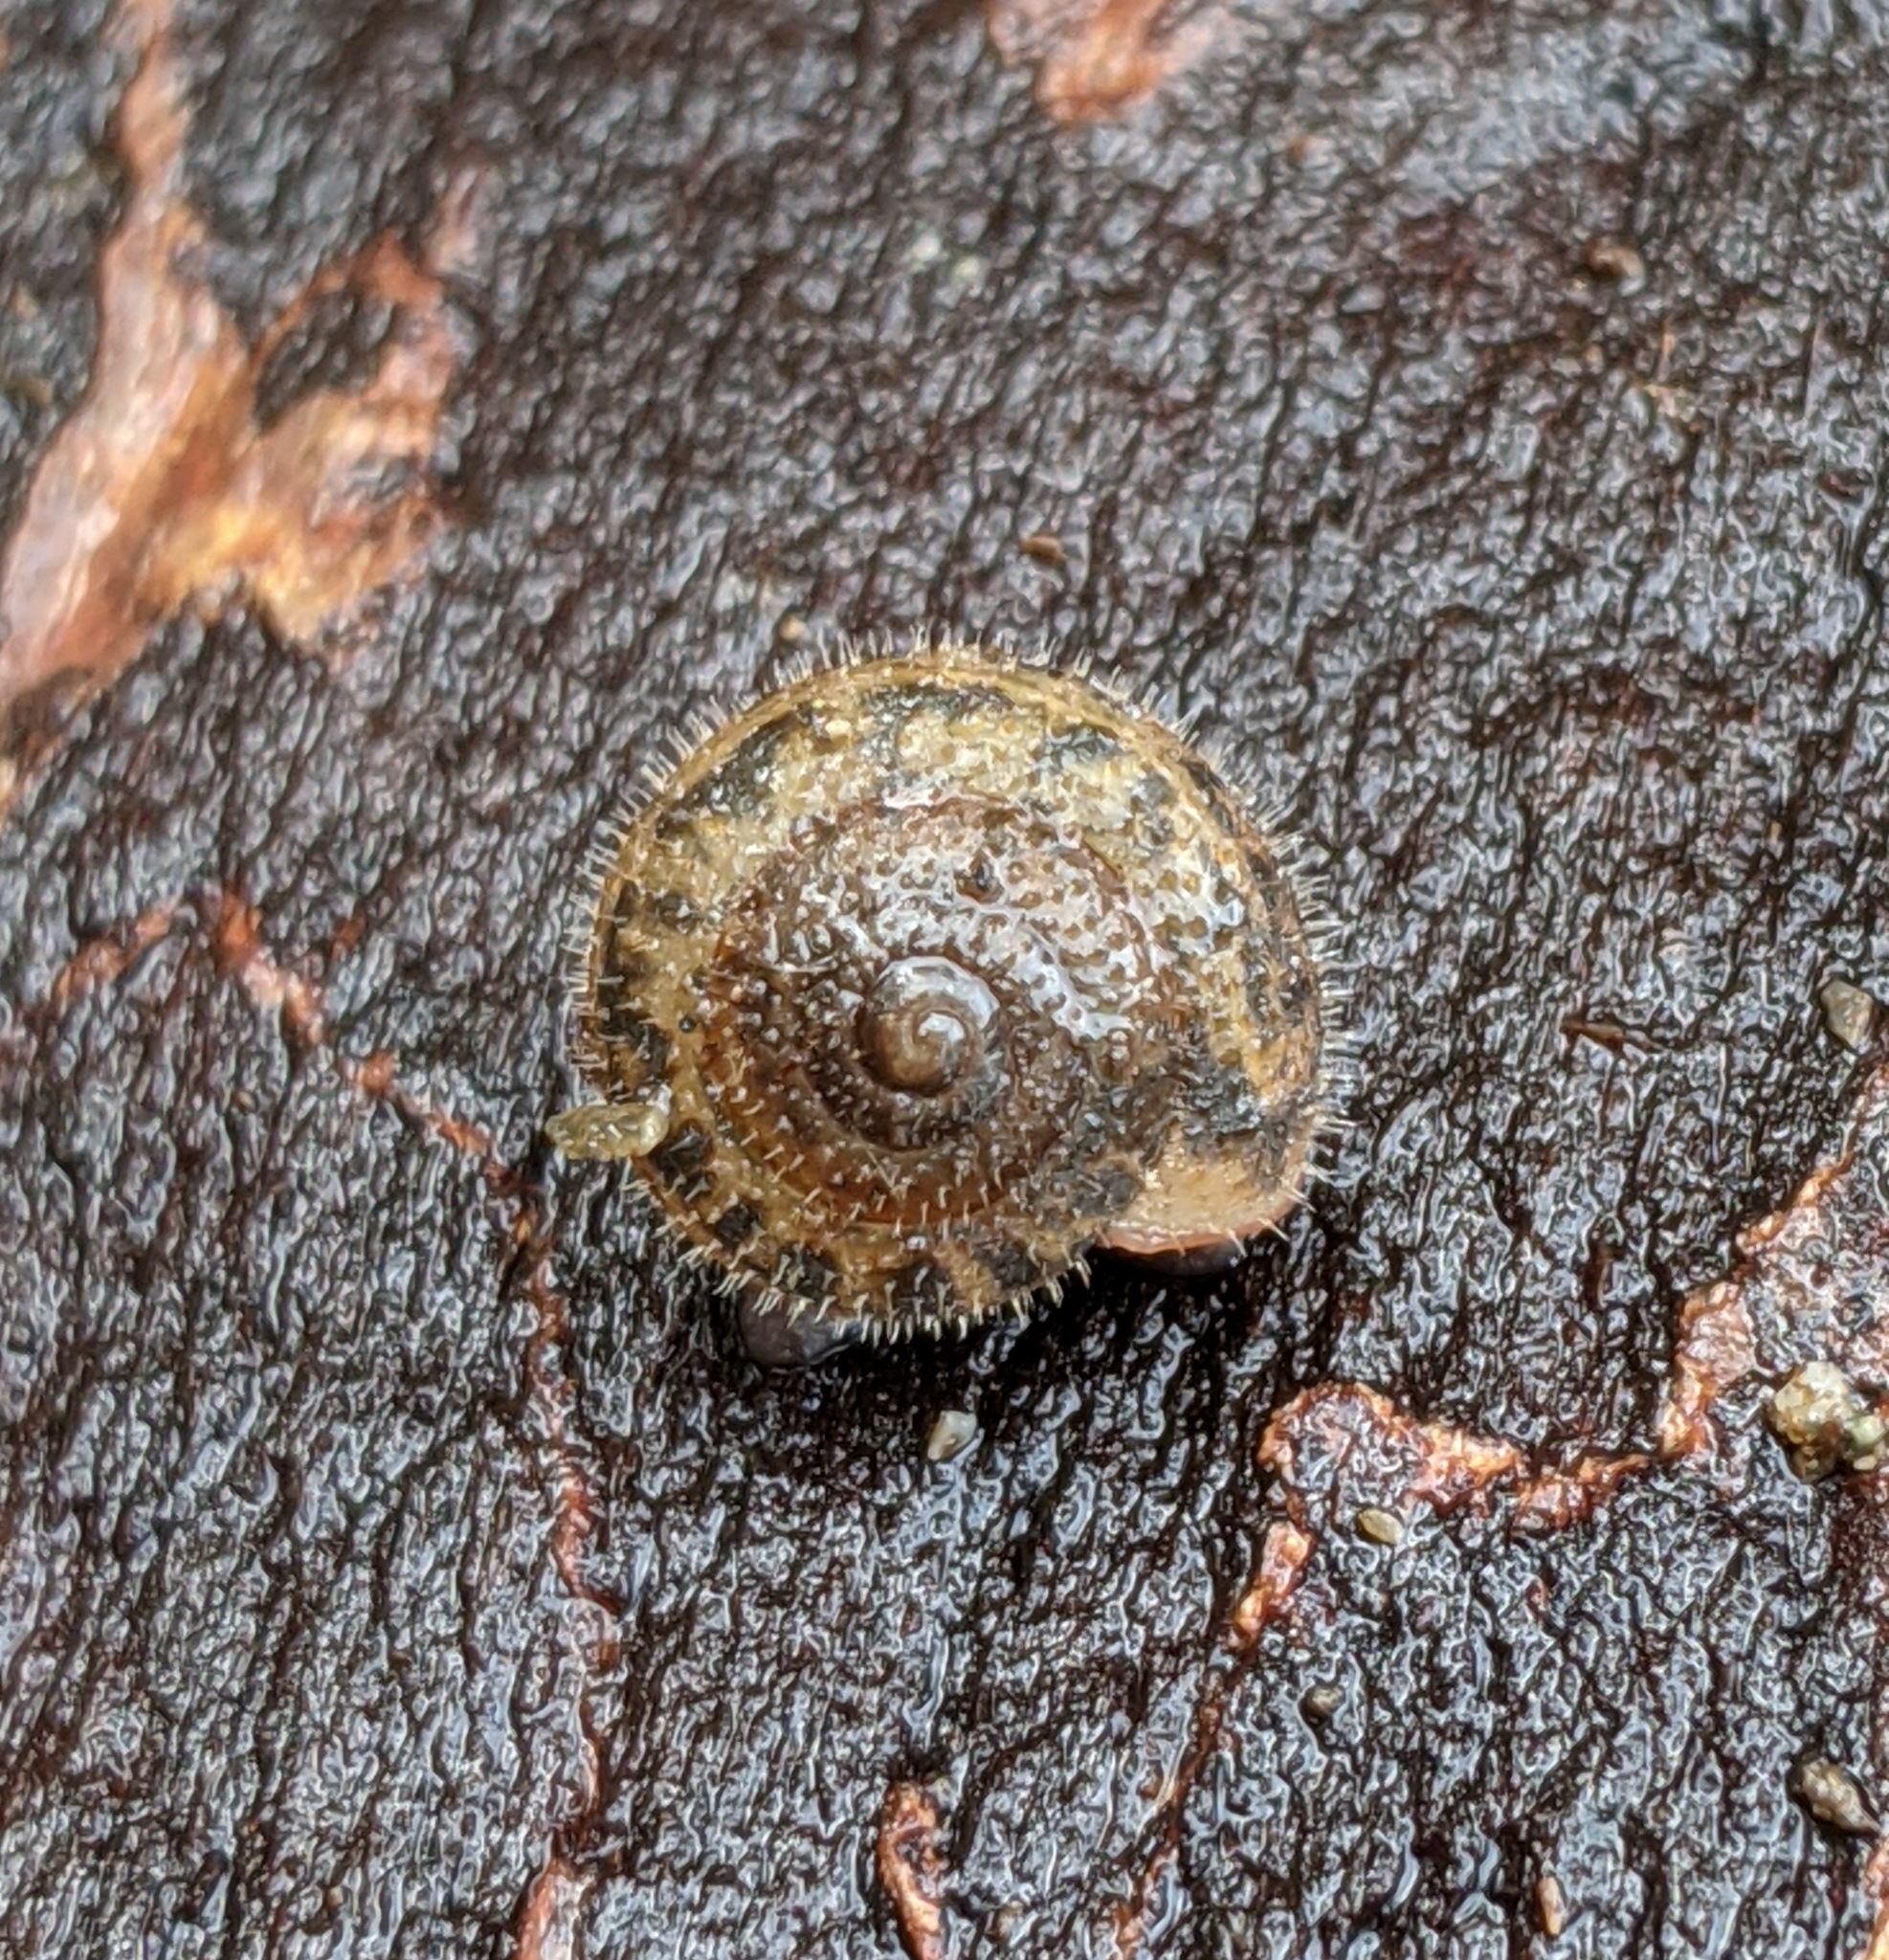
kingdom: Animalia
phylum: Mollusca
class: Gastropoda
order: Stylommatophora
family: Polygyridae
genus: Vespericola
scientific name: Vespericola columbianus
